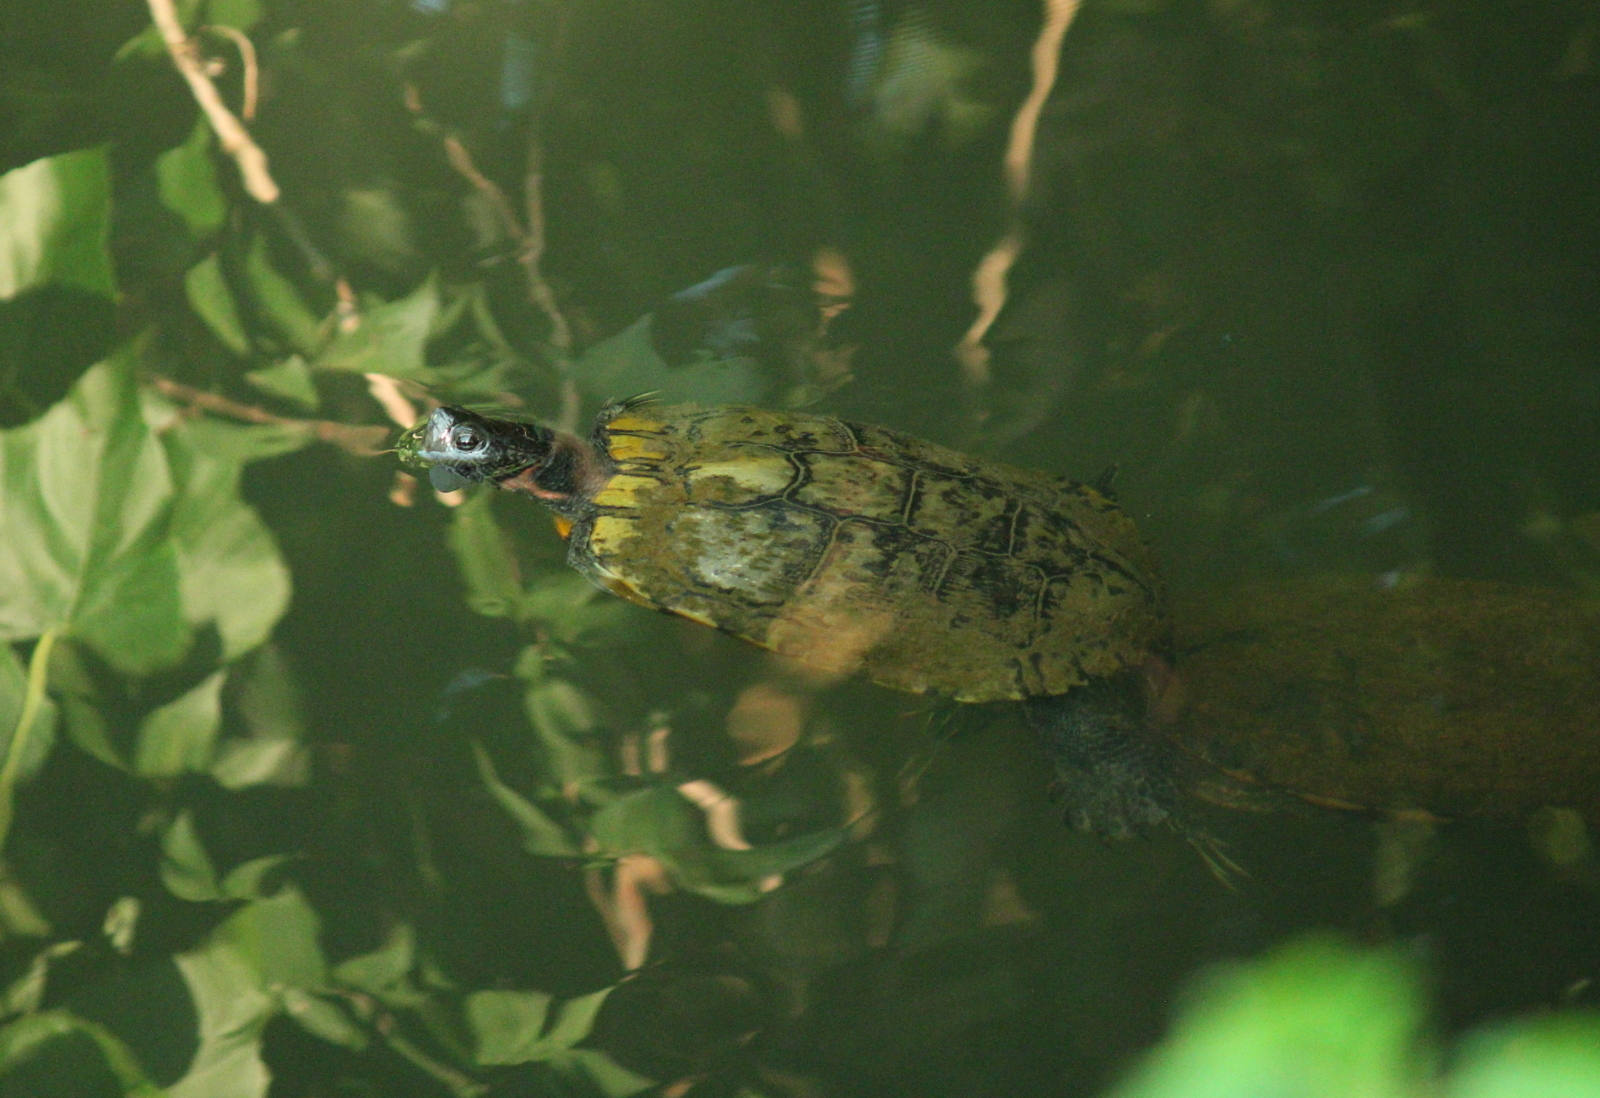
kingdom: Animalia
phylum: Chordata
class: Testudines
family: Emydidae
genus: Trachemys
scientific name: Trachemys scripta
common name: Slider
